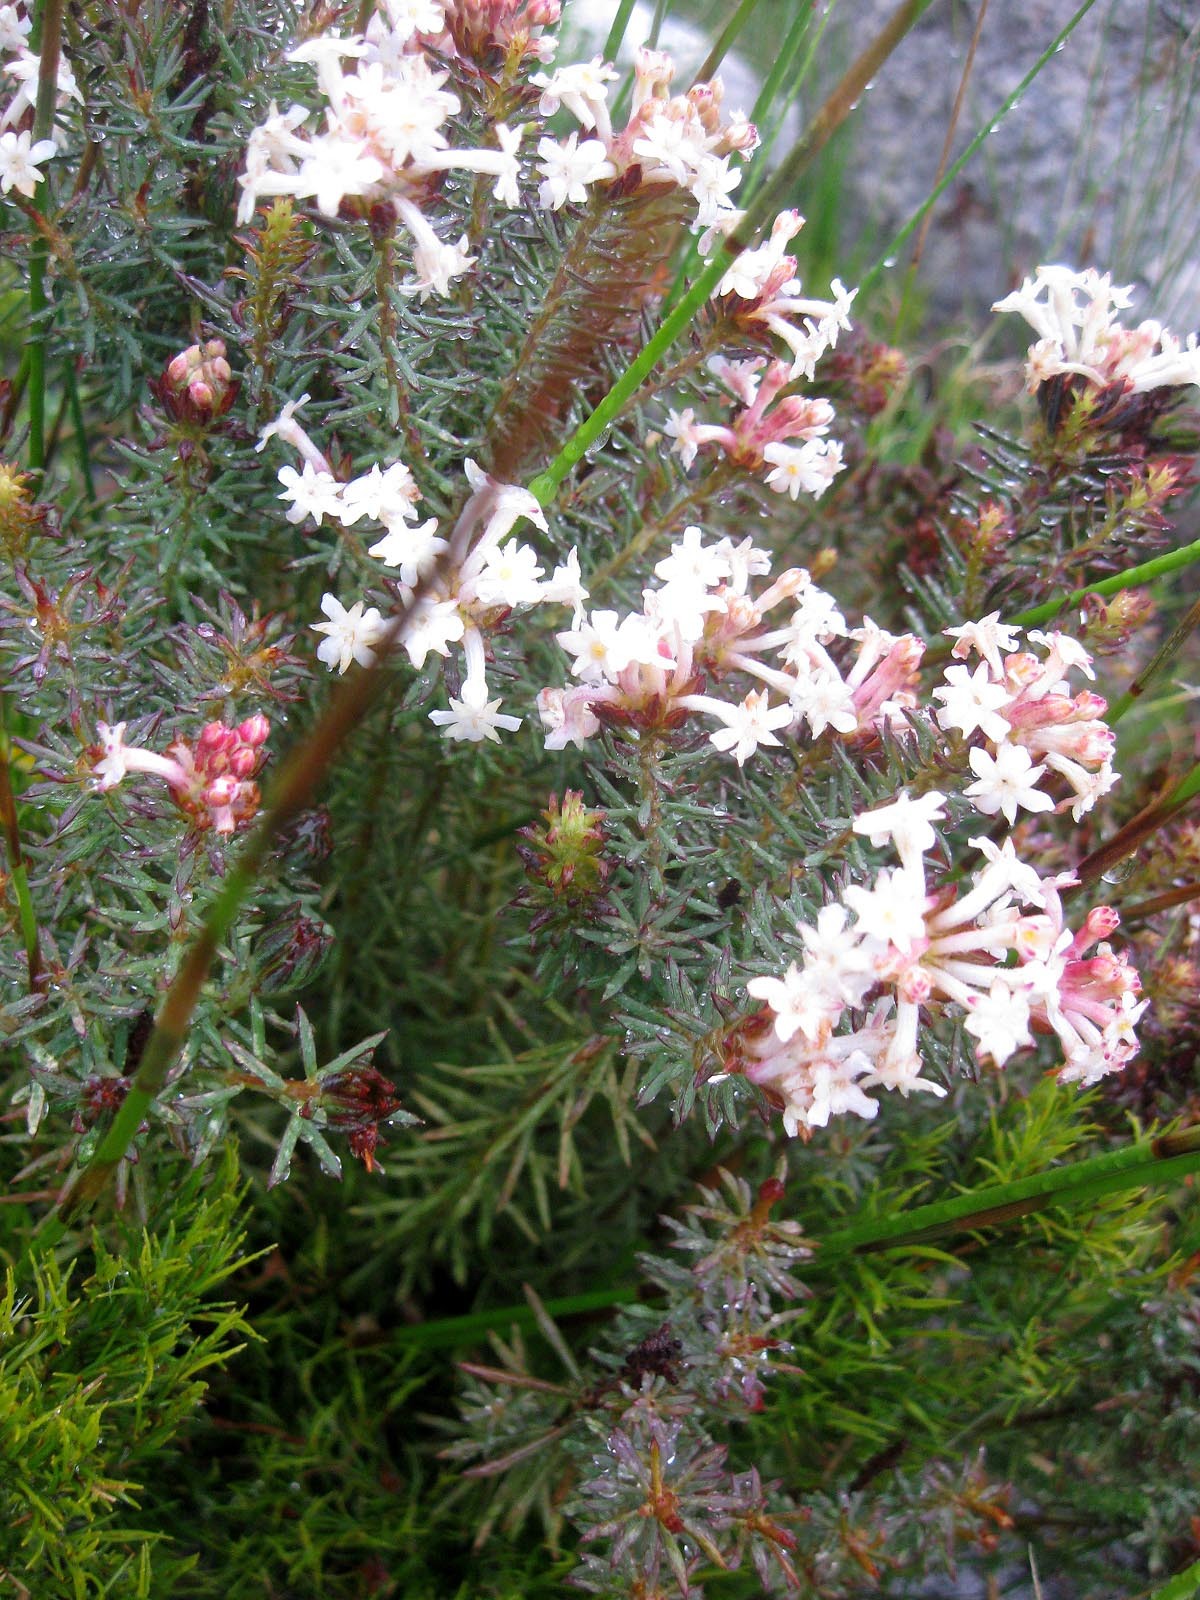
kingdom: Plantae
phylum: Tracheophyta
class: Magnoliopsida
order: Malvales
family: Thymelaeaceae
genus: Gnidia
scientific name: Gnidia pinifolia
